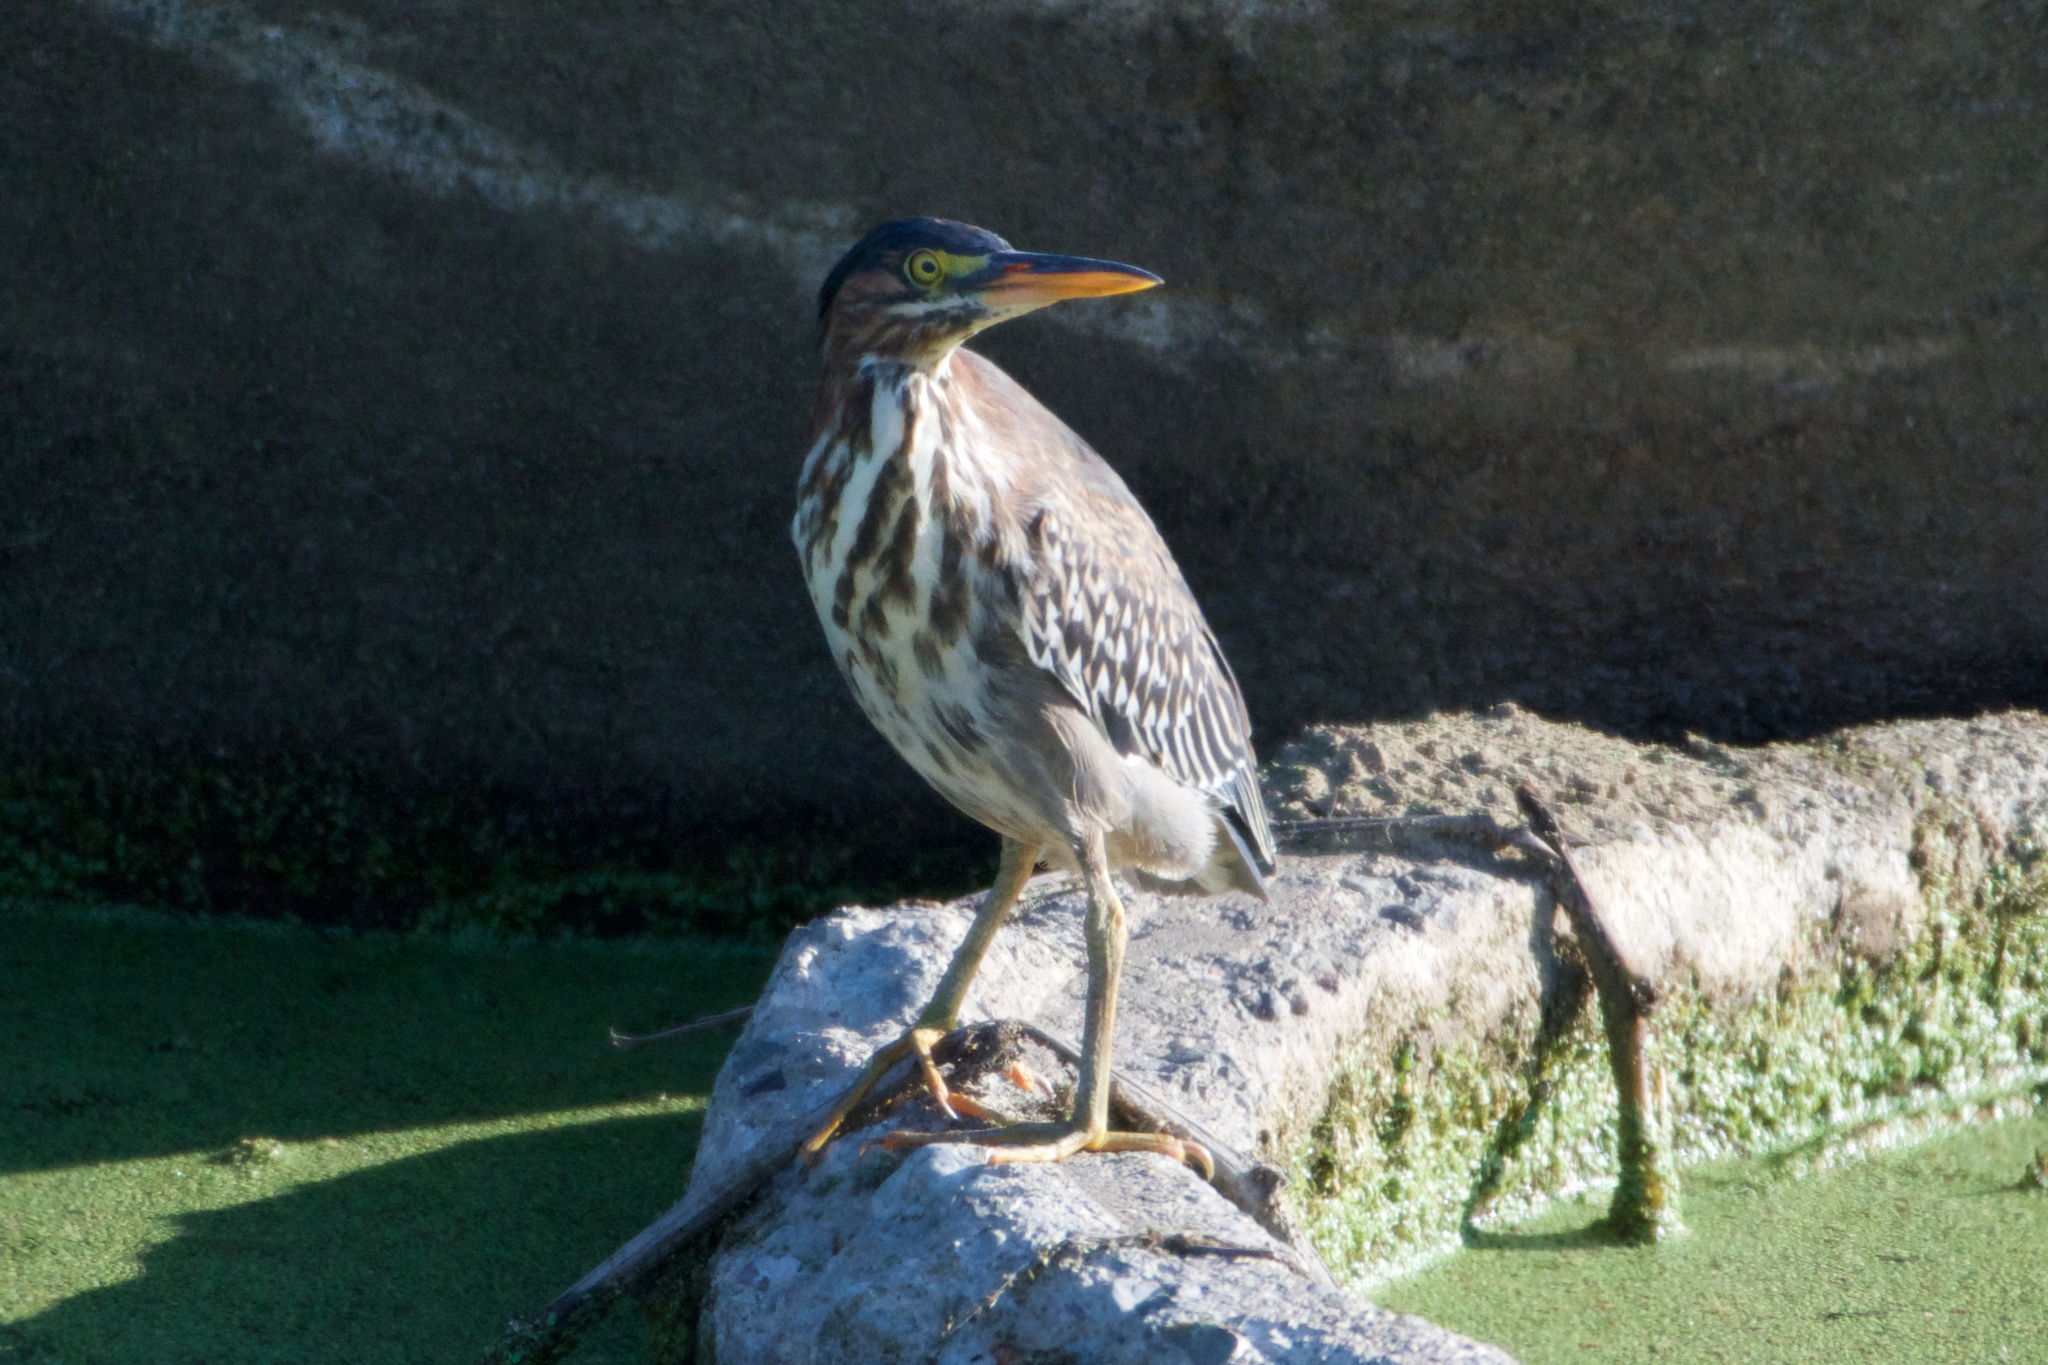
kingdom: Animalia
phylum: Chordata
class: Aves
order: Pelecaniformes
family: Ardeidae
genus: Butorides
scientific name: Butorides virescens
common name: Green heron
